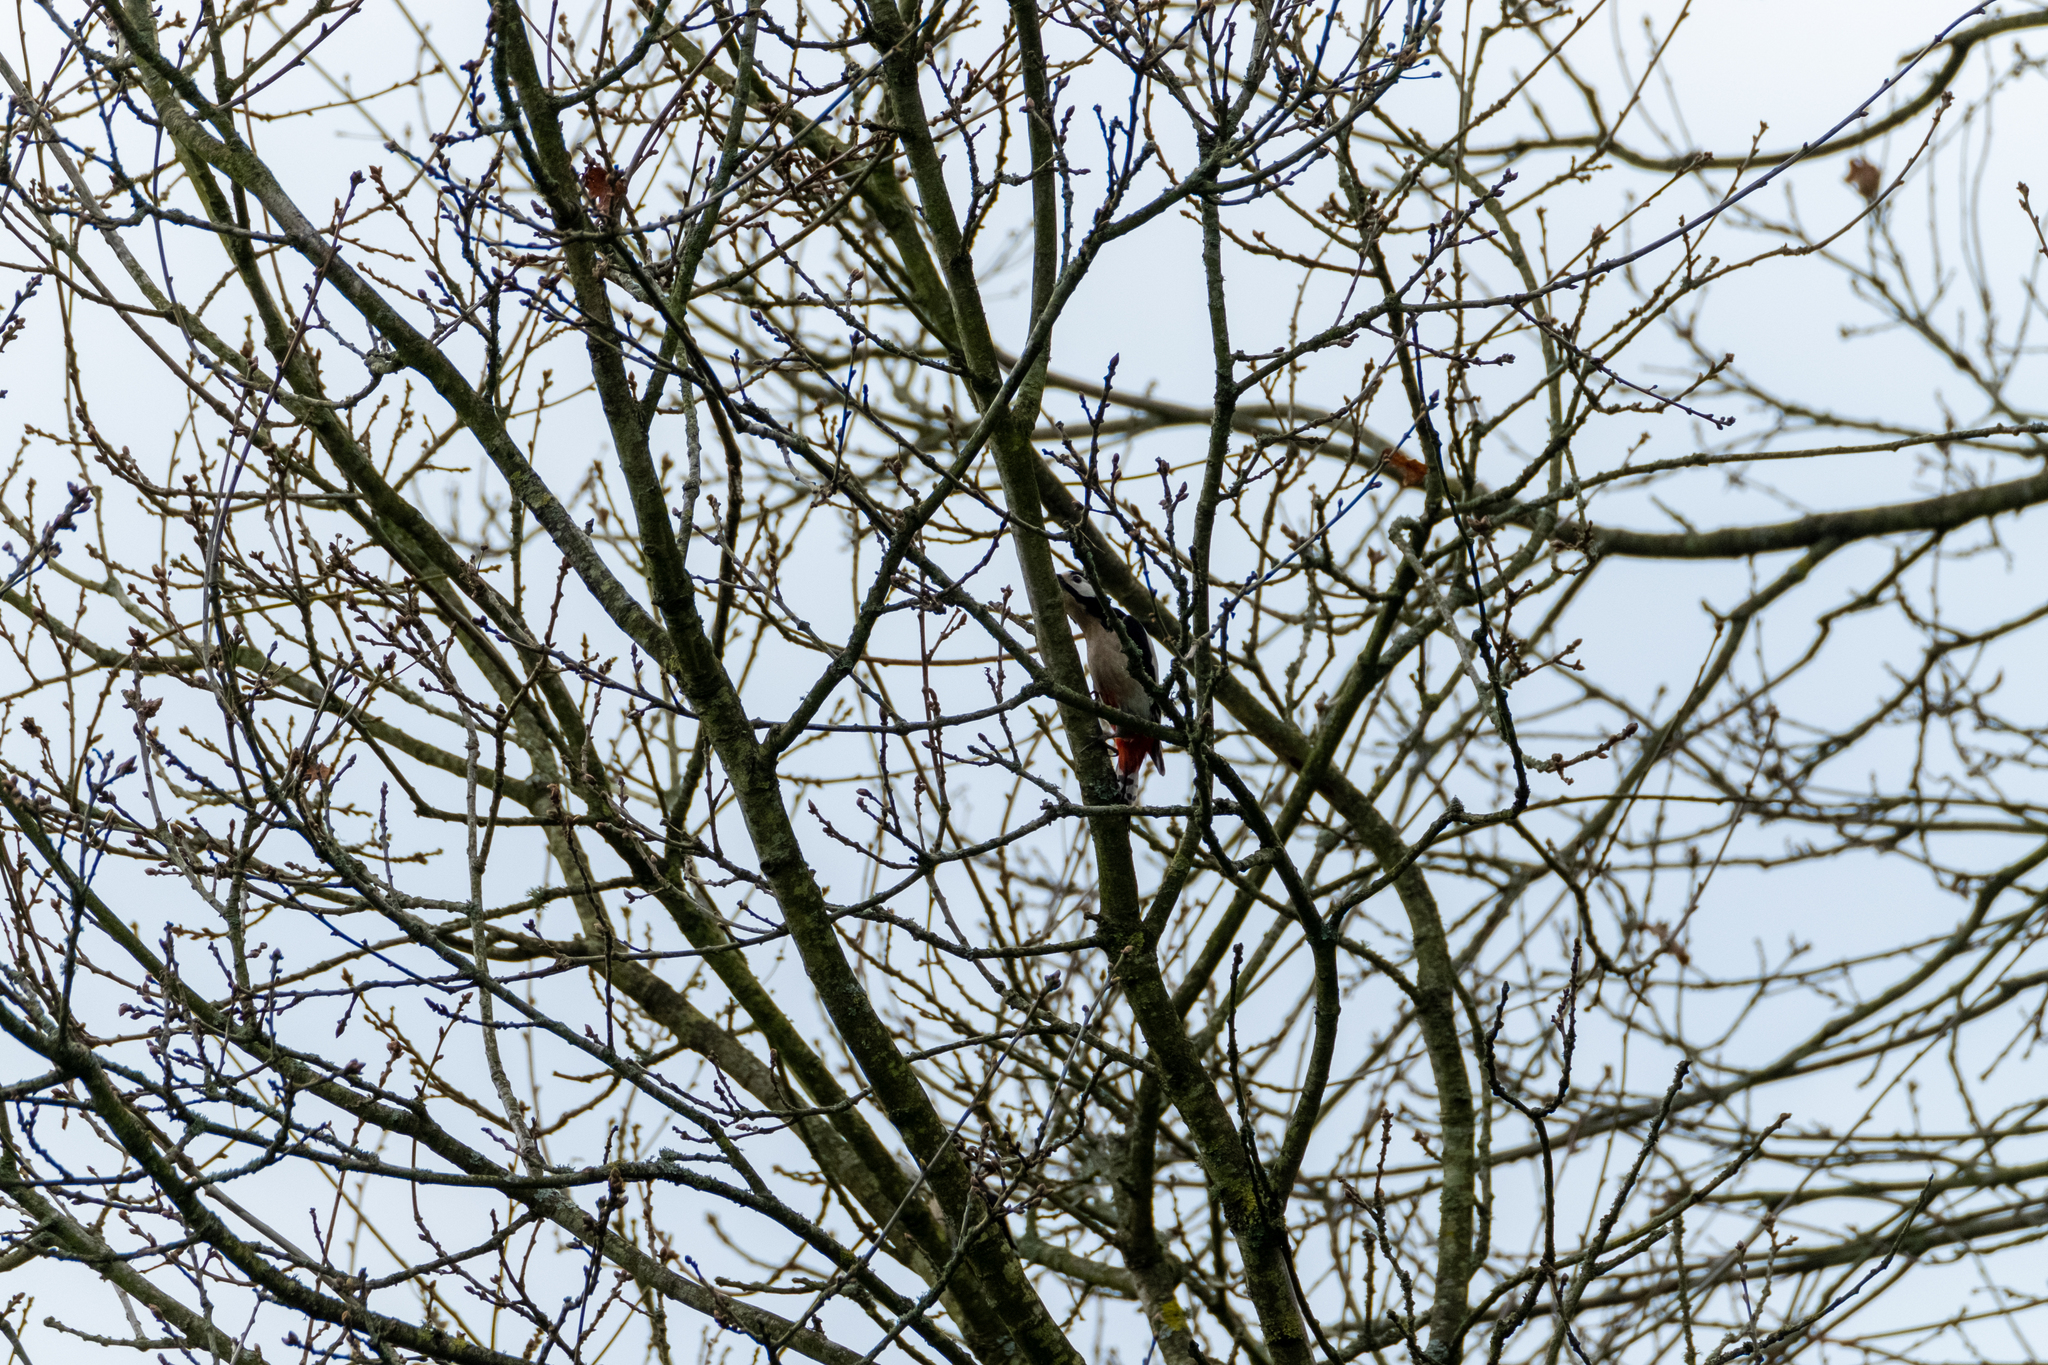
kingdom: Animalia
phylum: Chordata
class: Aves
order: Piciformes
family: Picidae
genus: Dendrocopos
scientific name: Dendrocopos major
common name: Great spotted woodpecker
